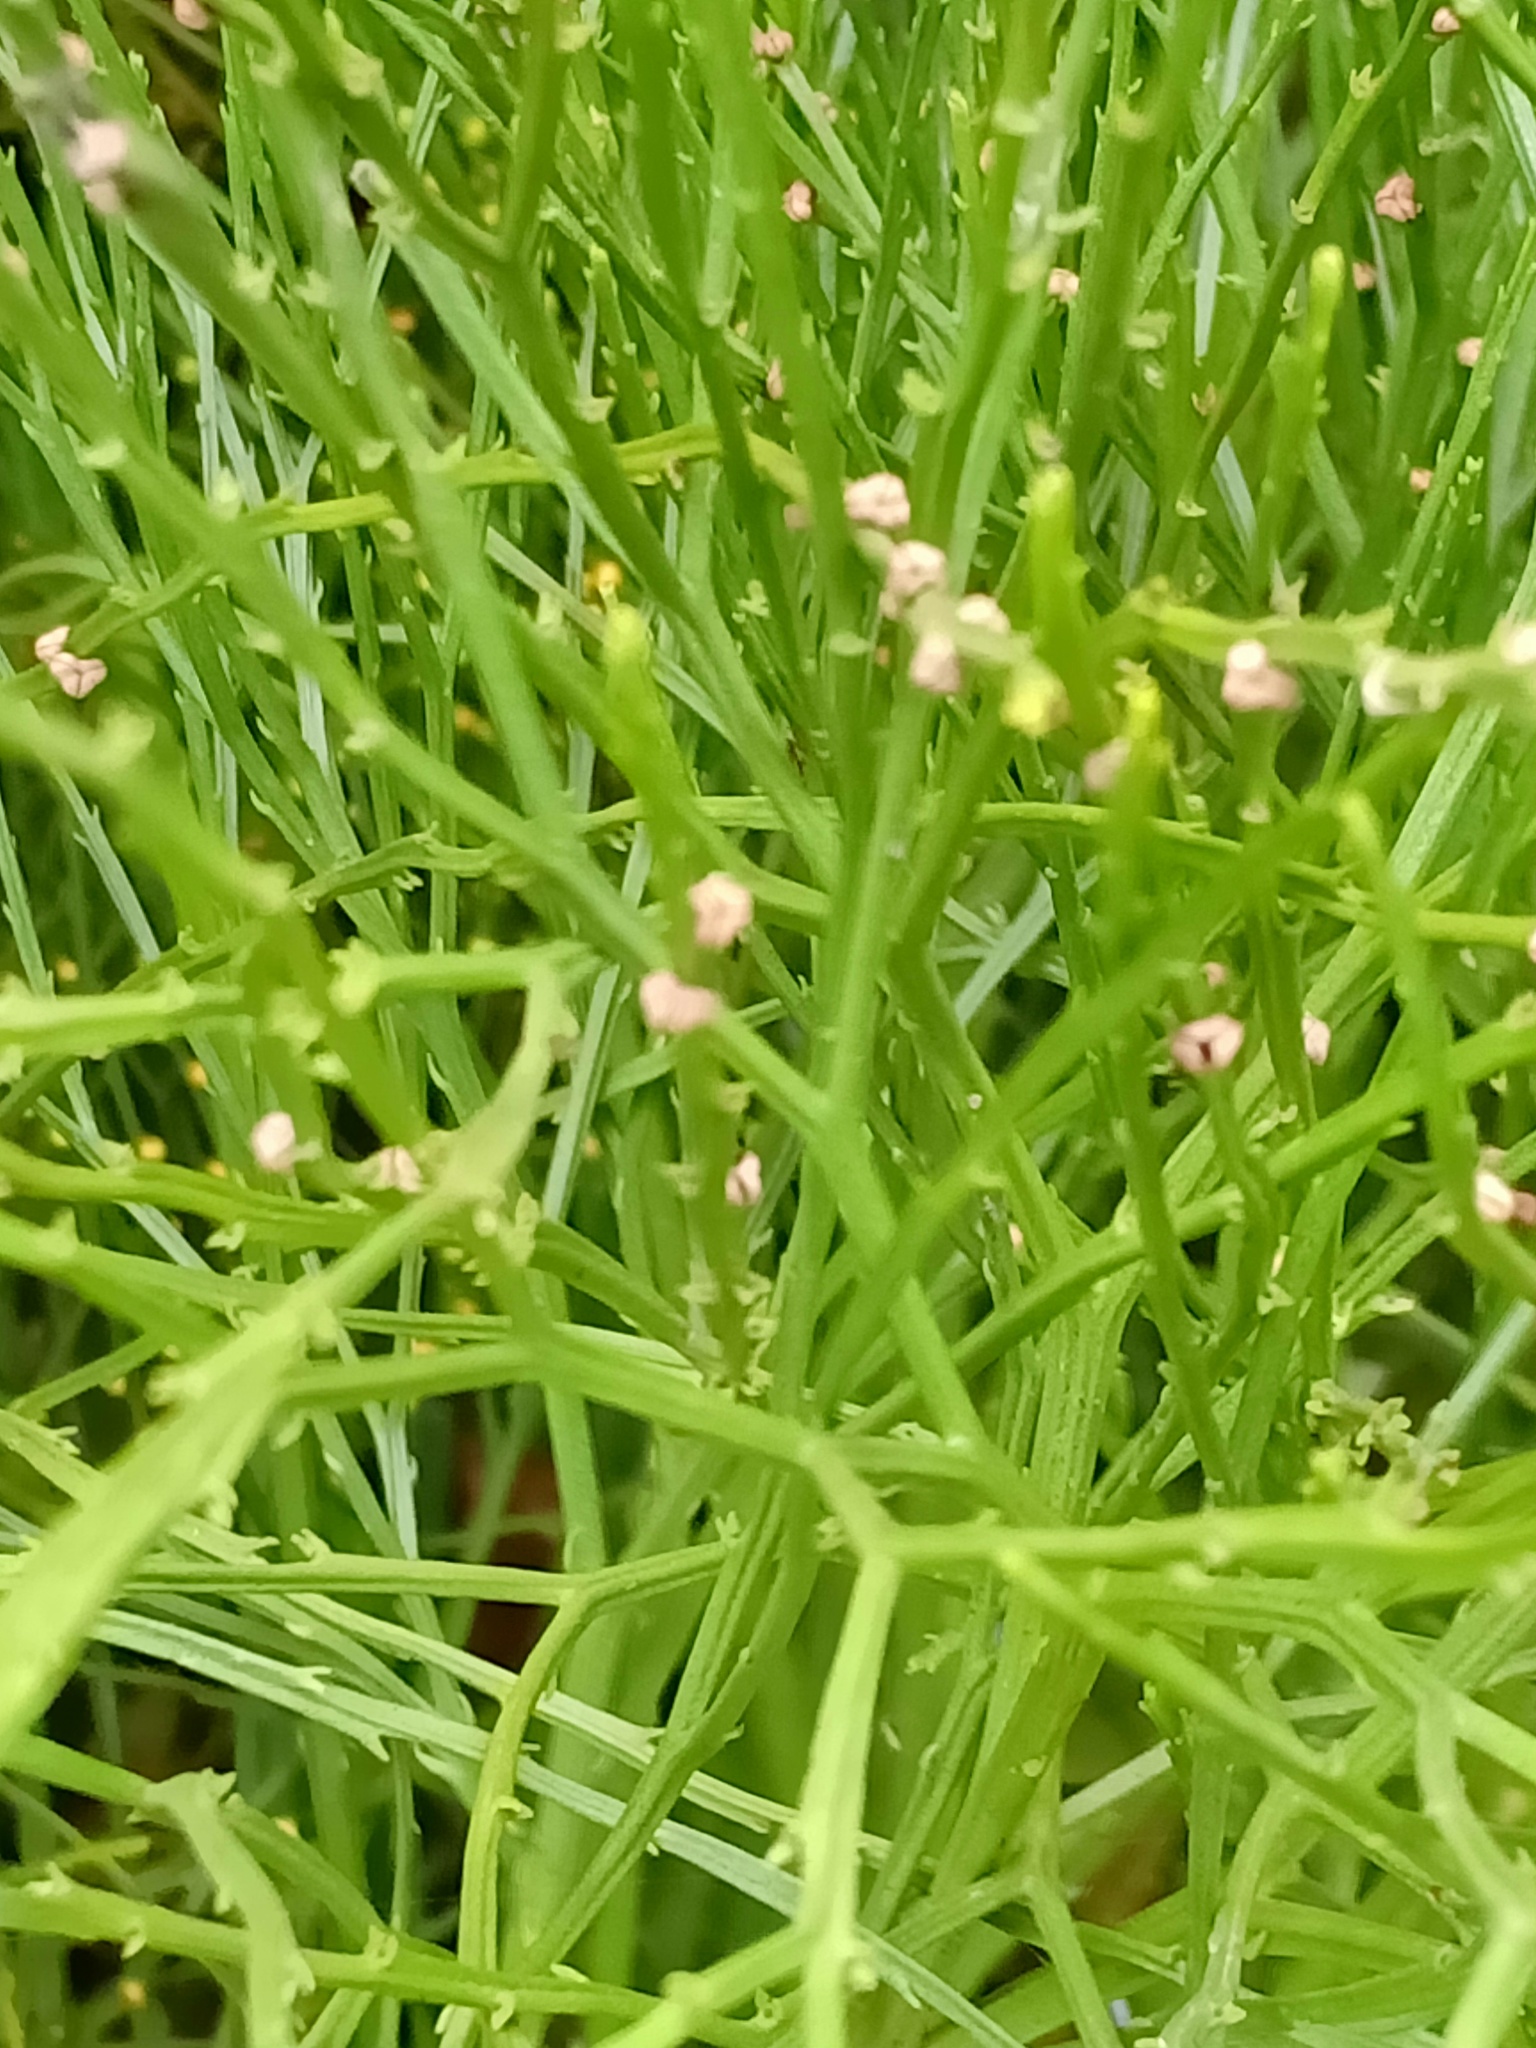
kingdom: Plantae
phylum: Tracheophyta
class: Polypodiopsida
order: Psilotales
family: Psilotaceae
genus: Psilotum
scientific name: Psilotum nudum
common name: Skeleton fork fern
